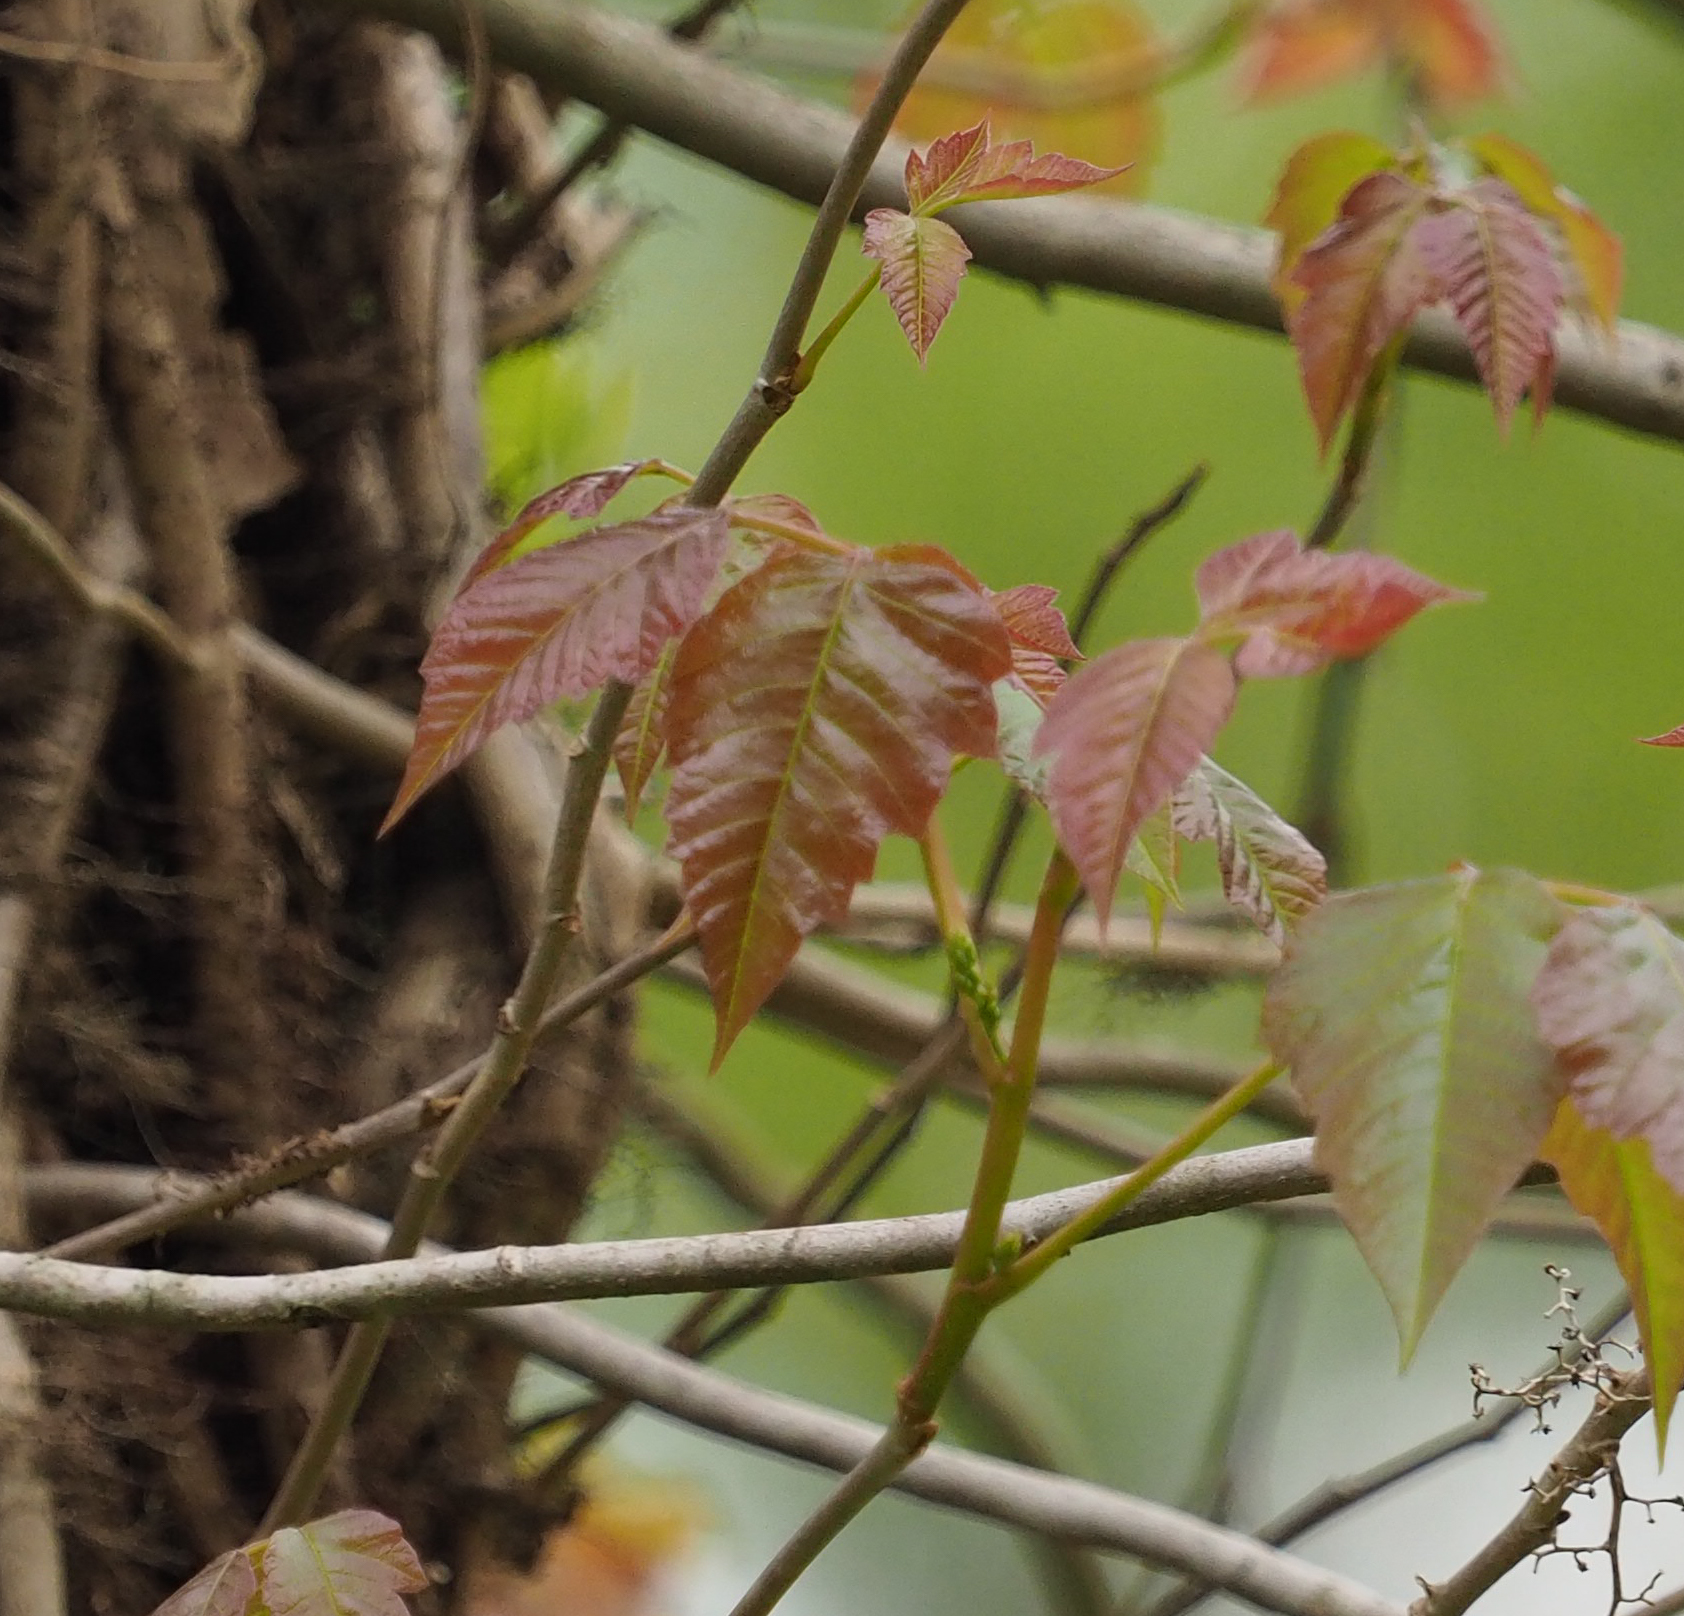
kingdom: Plantae
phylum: Tracheophyta
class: Magnoliopsida
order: Sapindales
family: Anacardiaceae
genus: Toxicodendron
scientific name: Toxicodendron radicans
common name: Poison ivy
